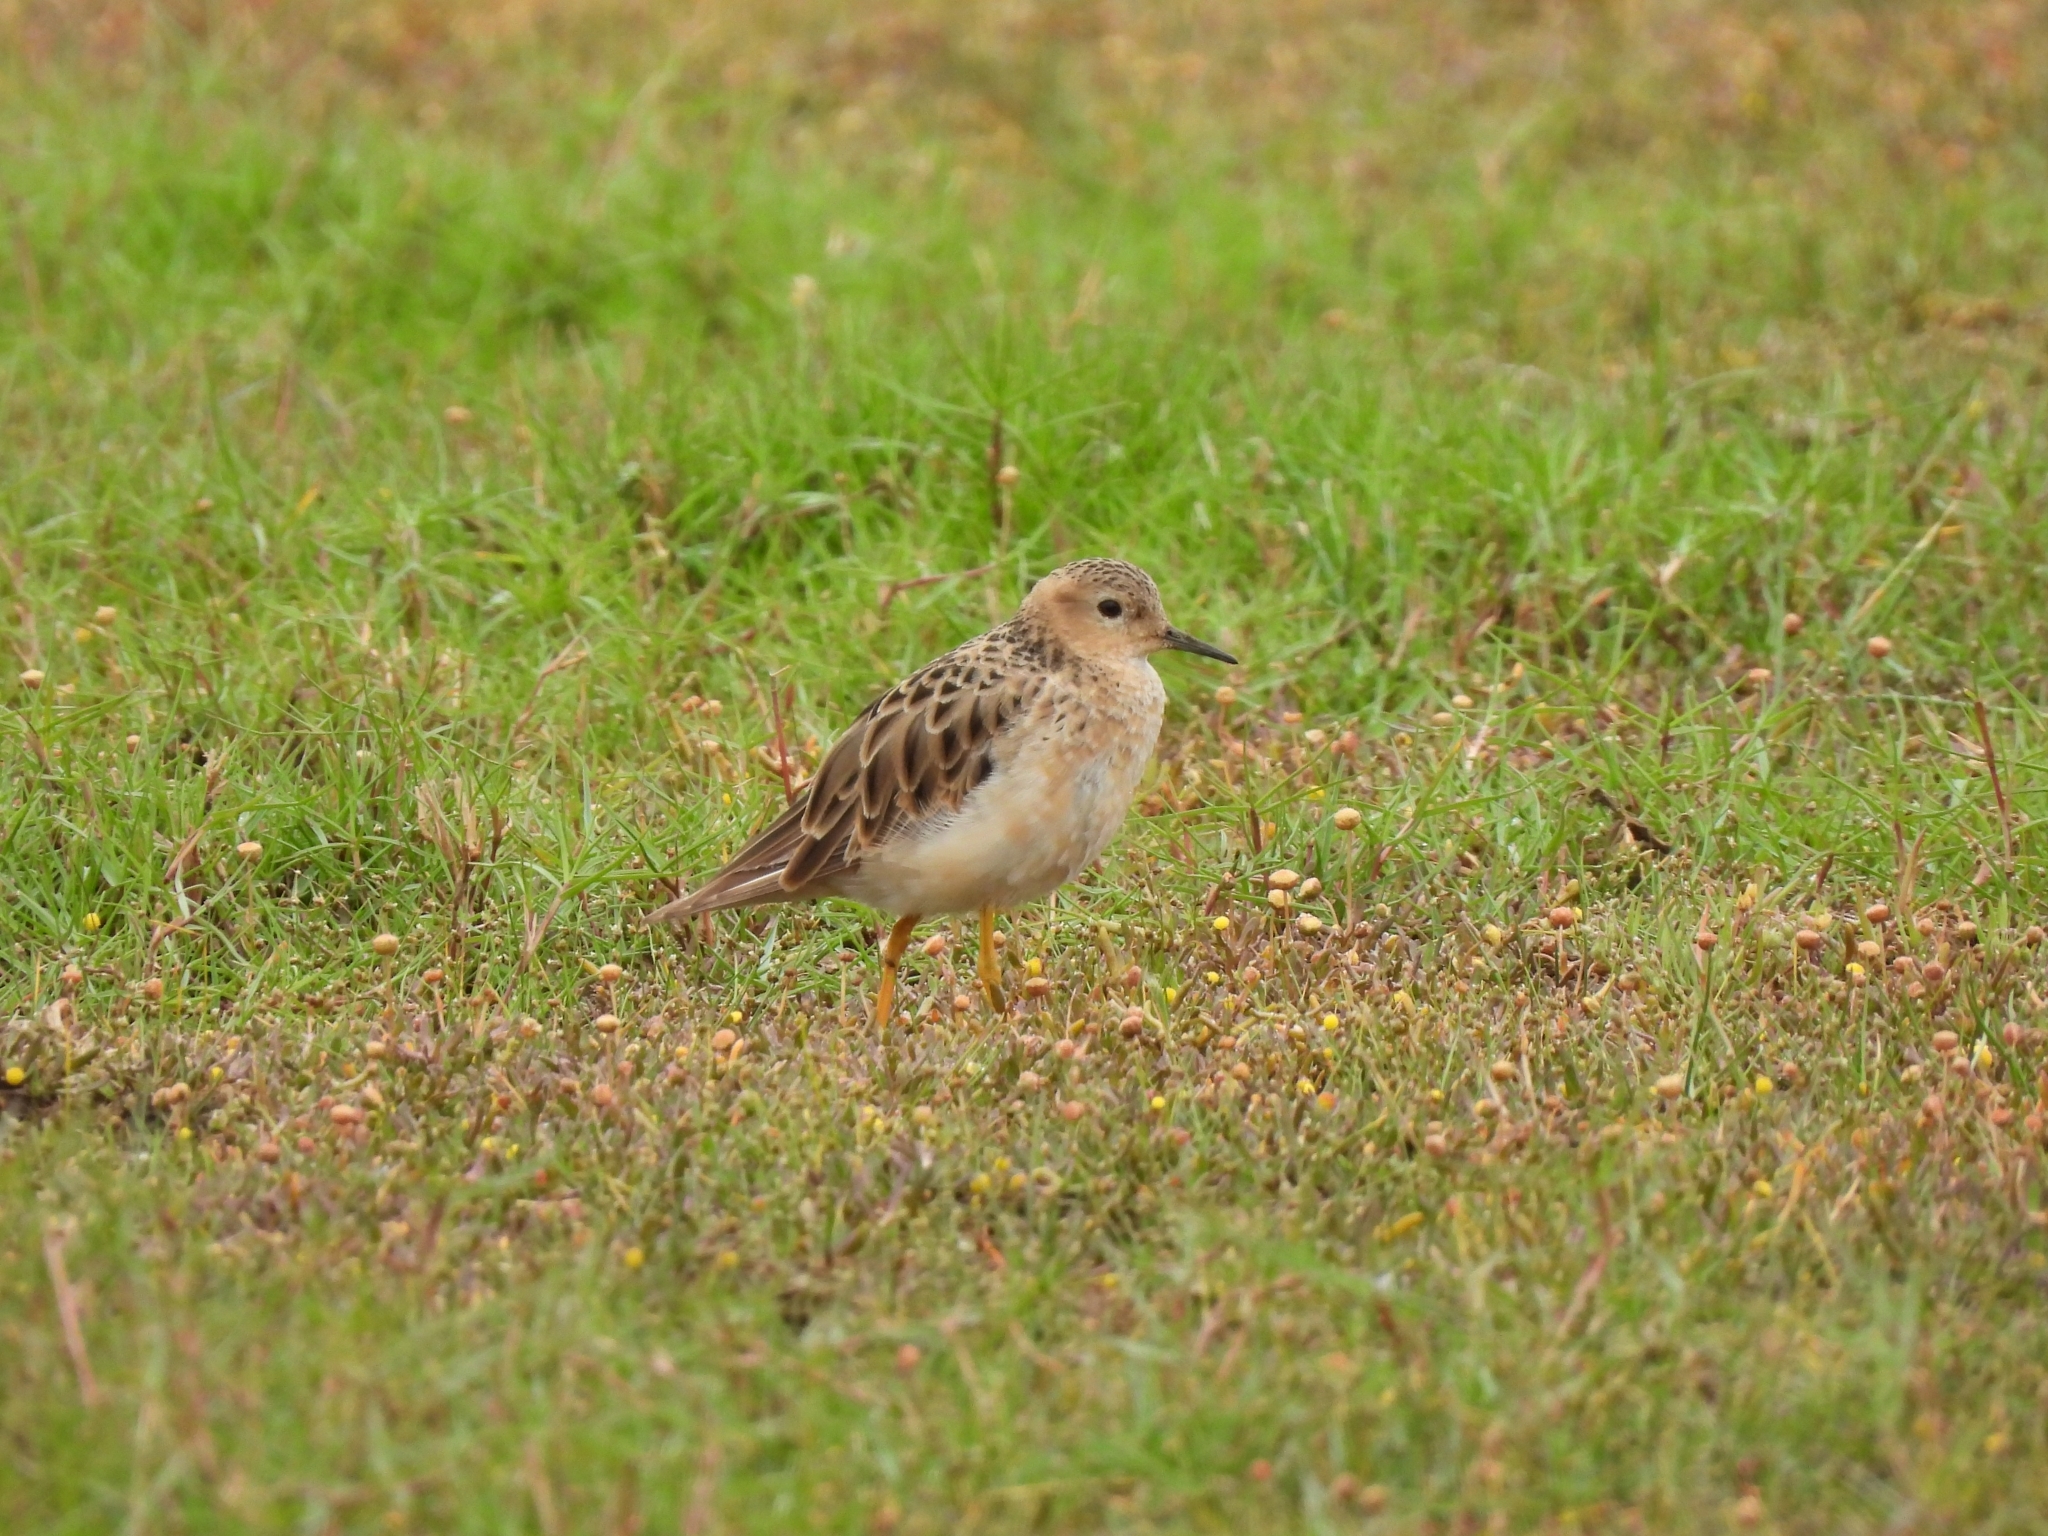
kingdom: Animalia
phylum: Chordata
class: Aves
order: Charadriiformes
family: Scolopacidae
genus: Calidris
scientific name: Calidris subruficollis
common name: Buff-breasted sandpiper
